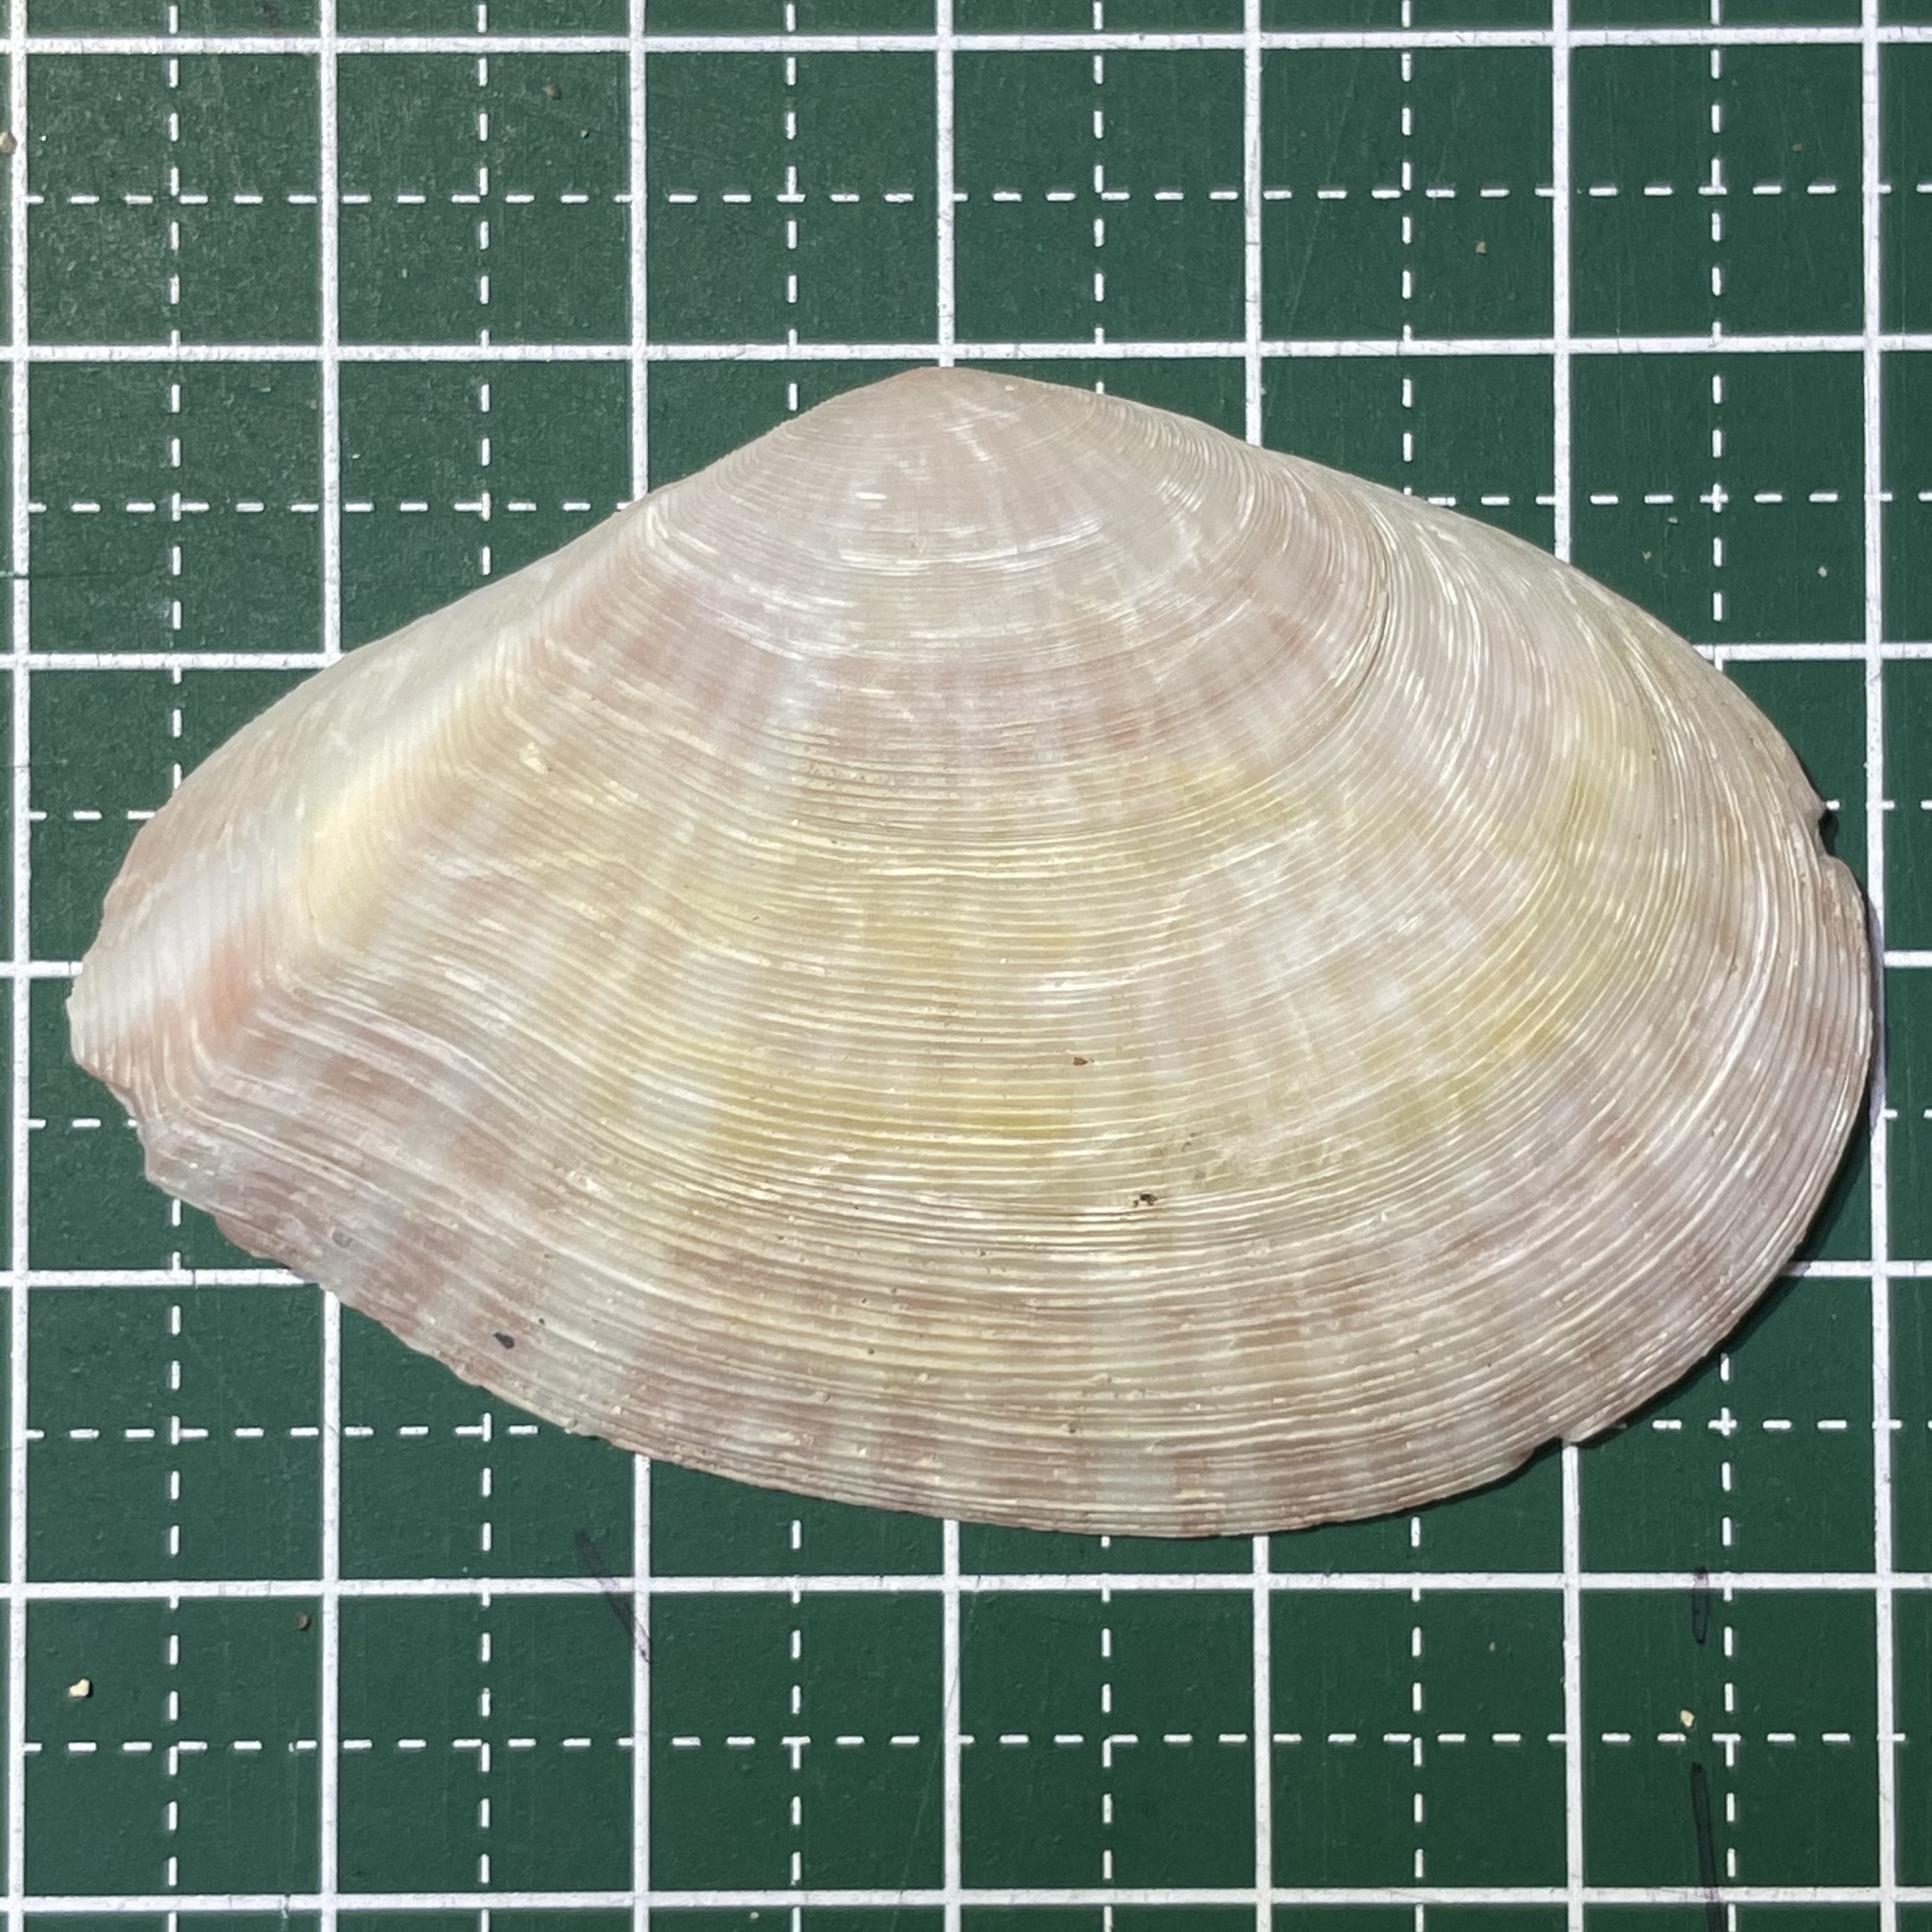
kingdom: Animalia
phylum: Mollusca
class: Bivalvia
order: Cardiida
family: Tellinidae
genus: Tellinella
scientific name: Tellinella virgata
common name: Striped tellin
